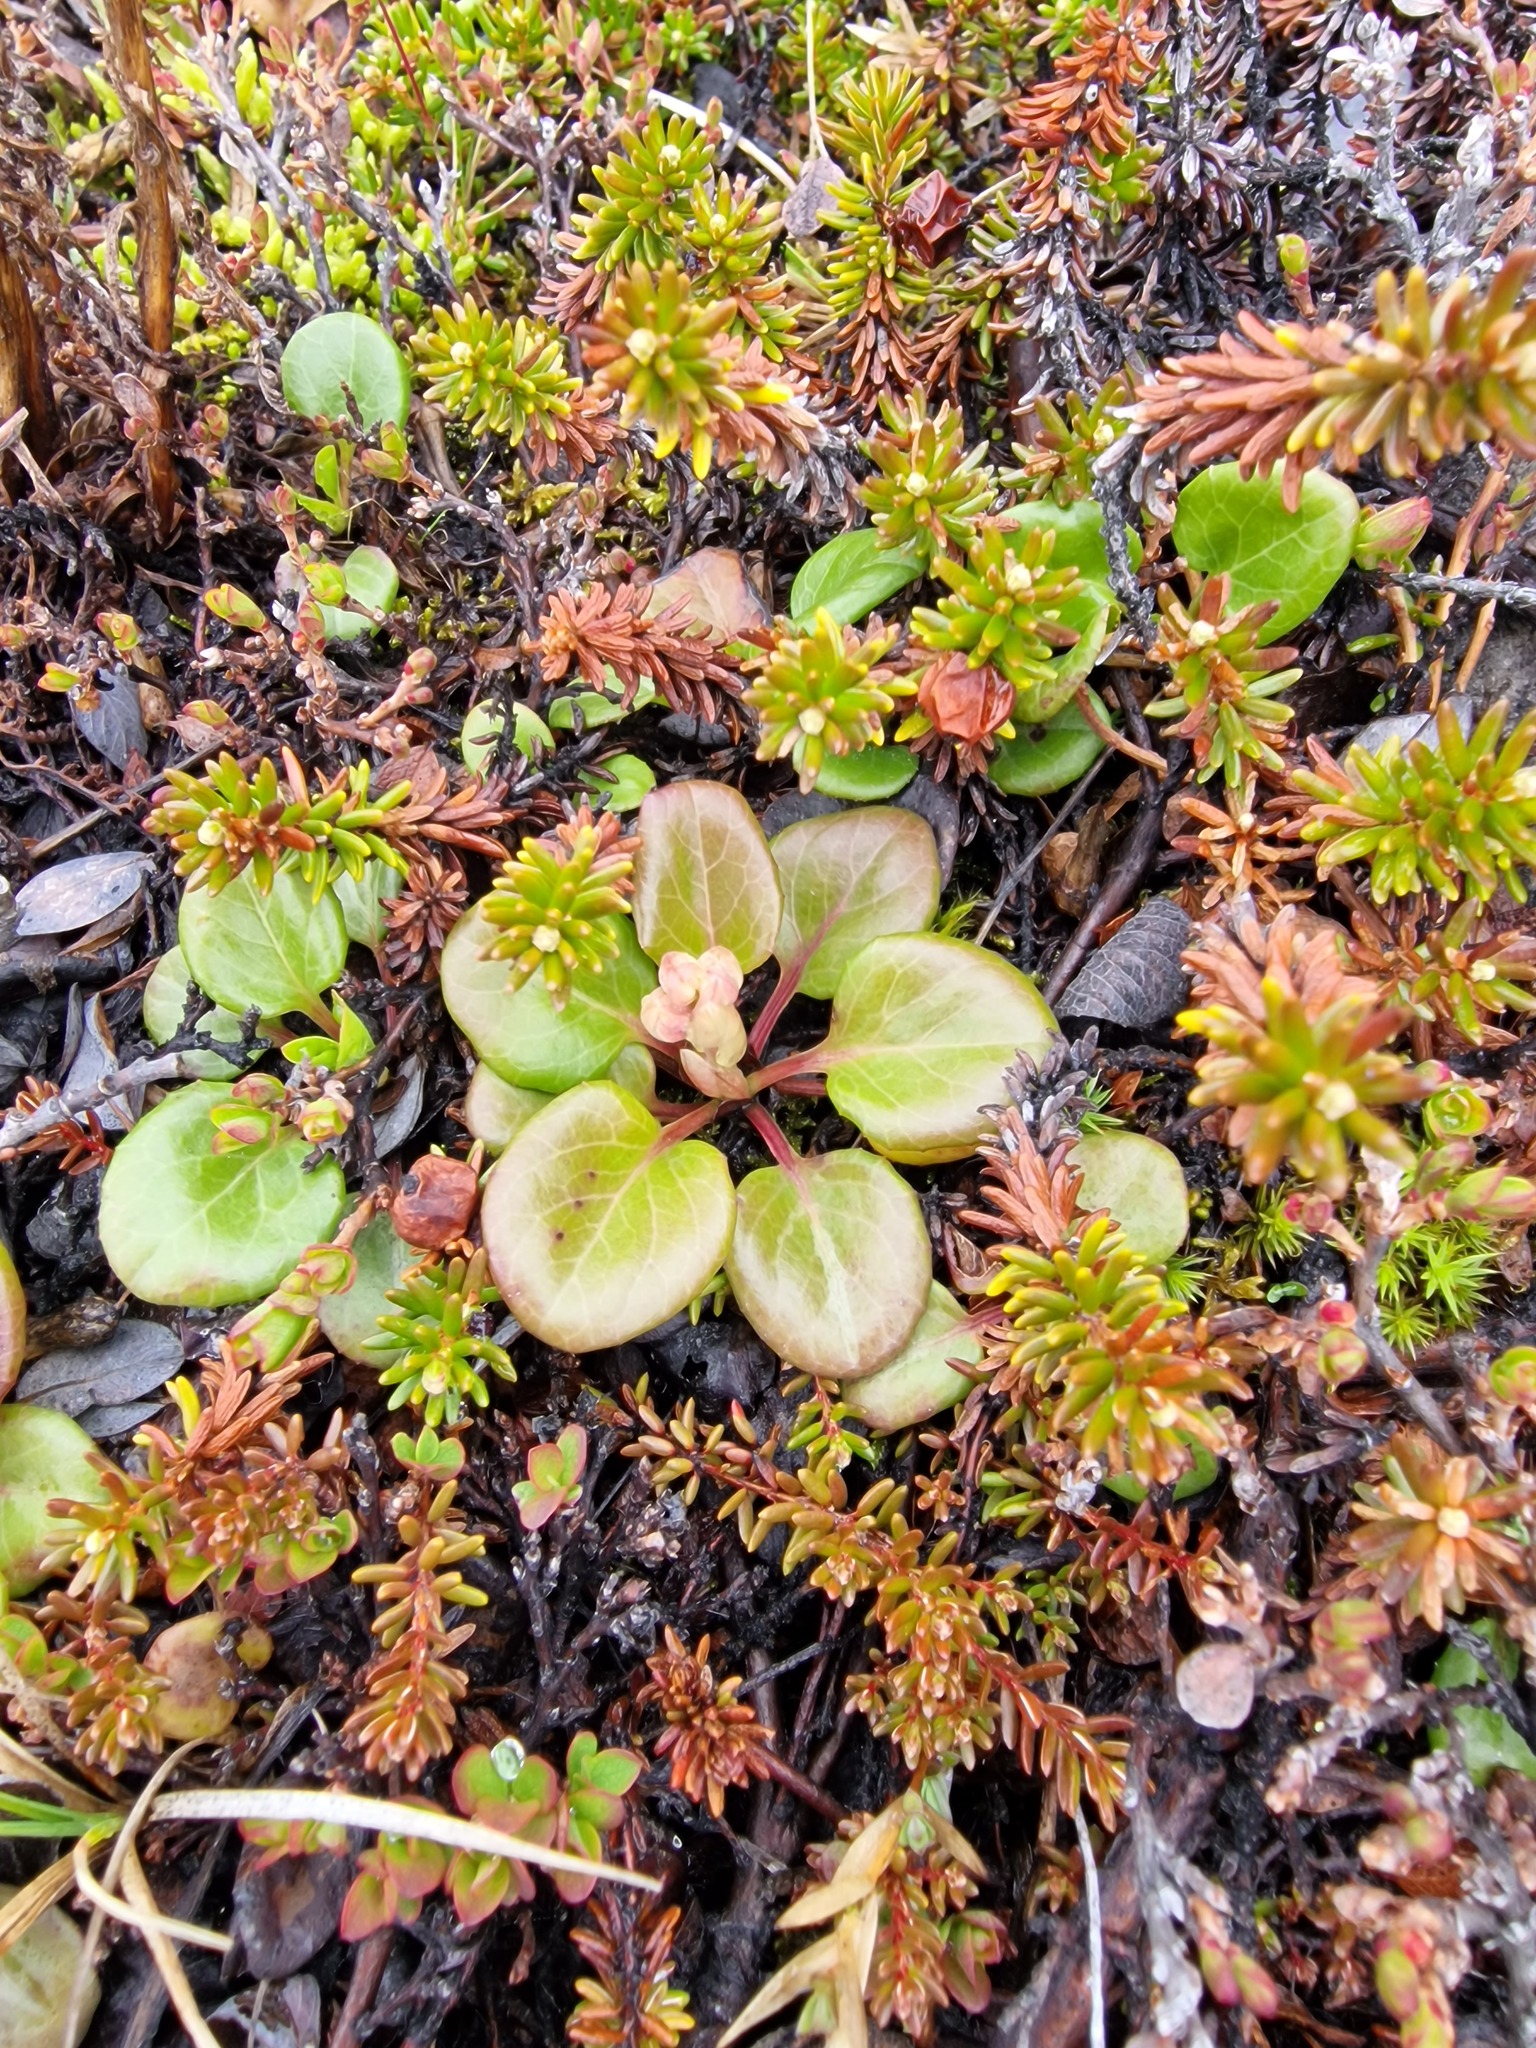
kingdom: Plantae
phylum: Tracheophyta
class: Magnoliopsida
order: Ericales
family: Ericaceae
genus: Pyrola
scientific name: Pyrola grandiflora
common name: Arctic pyrola
